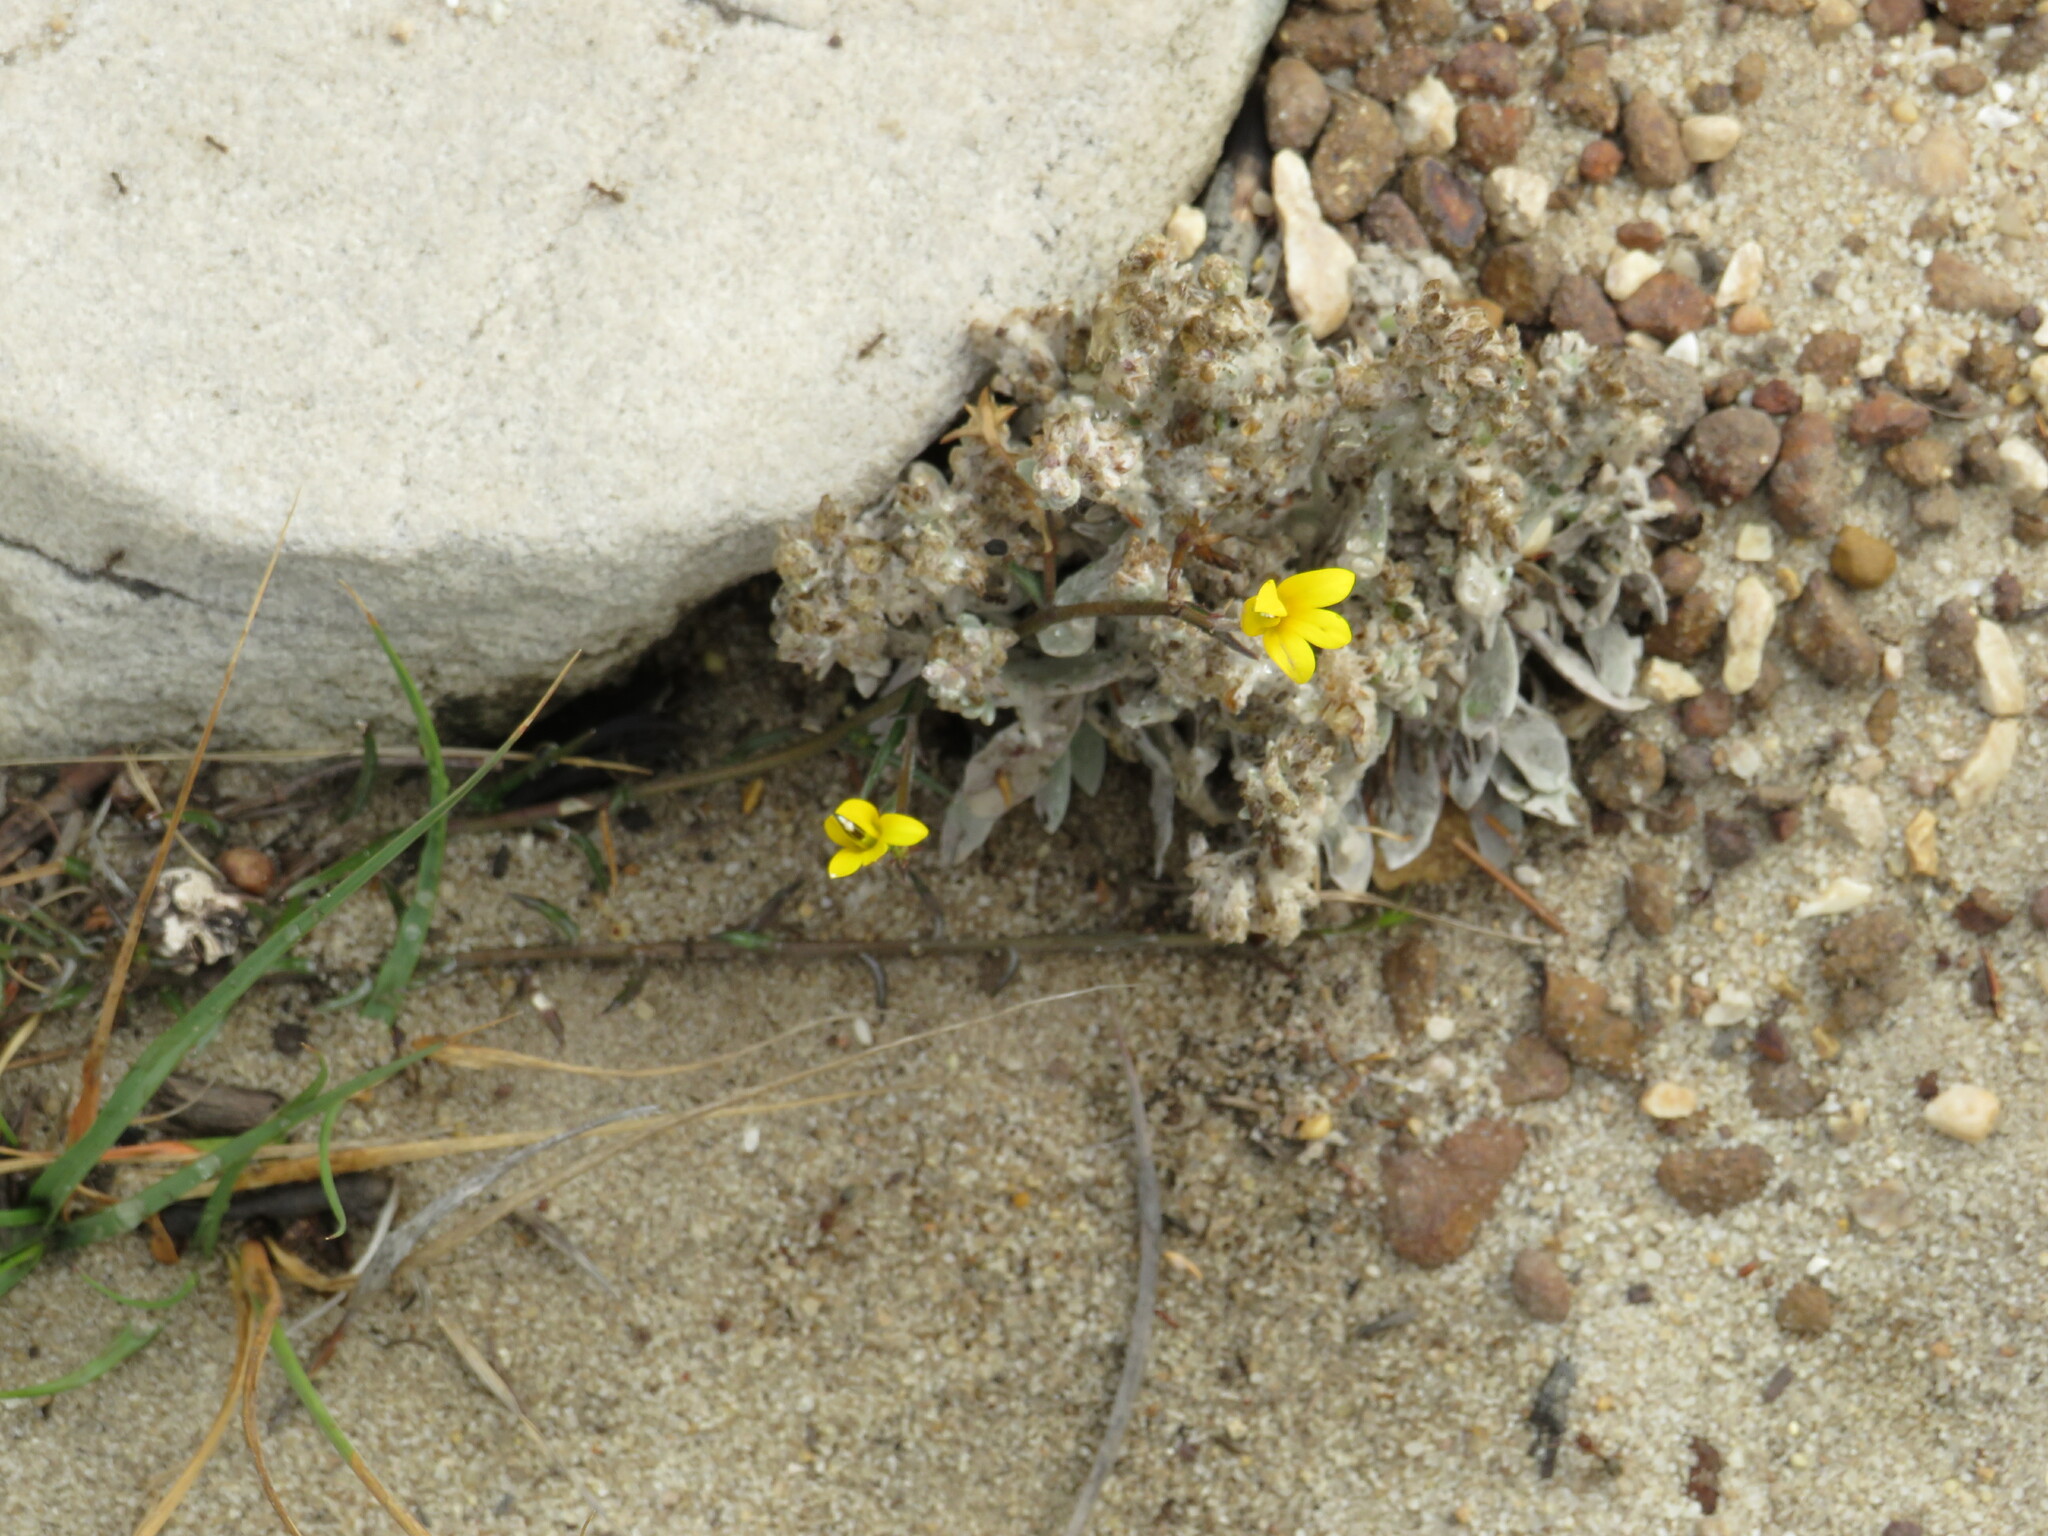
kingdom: Plantae
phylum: Tracheophyta
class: Magnoliopsida
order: Asterales
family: Campanulaceae
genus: Monopsis
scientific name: Monopsis lutea
